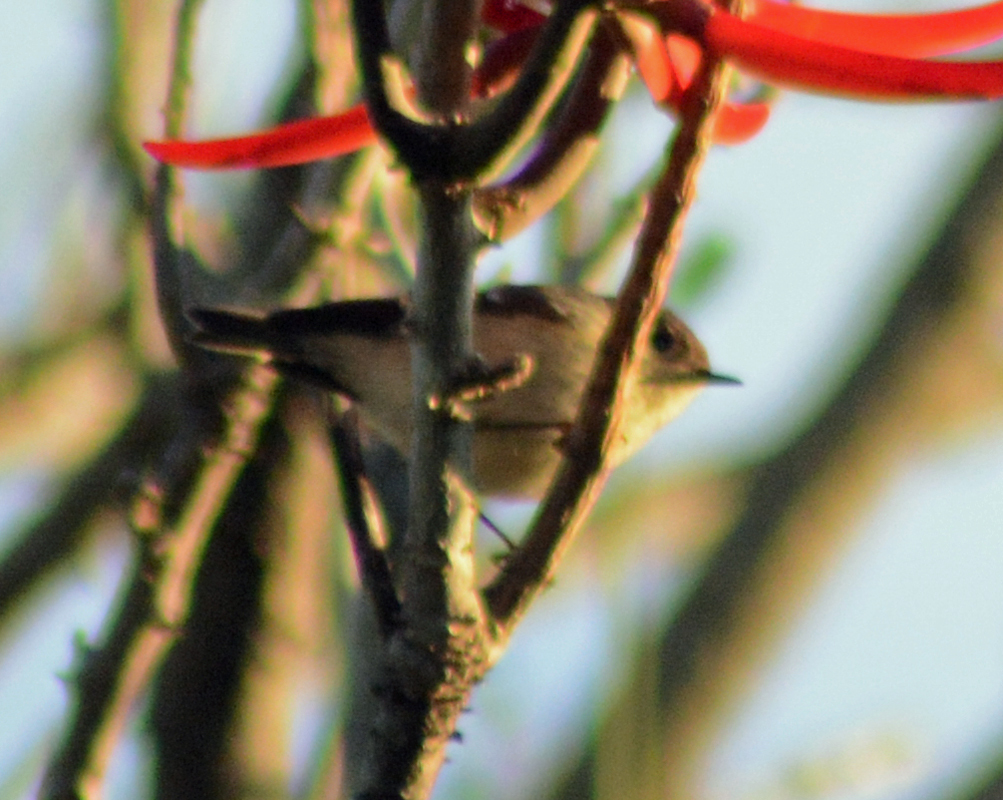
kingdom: Animalia
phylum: Chordata
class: Aves
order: Passeriformes
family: Regulidae
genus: Regulus
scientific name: Regulus calendula
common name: Ruby-crowned kinglet
